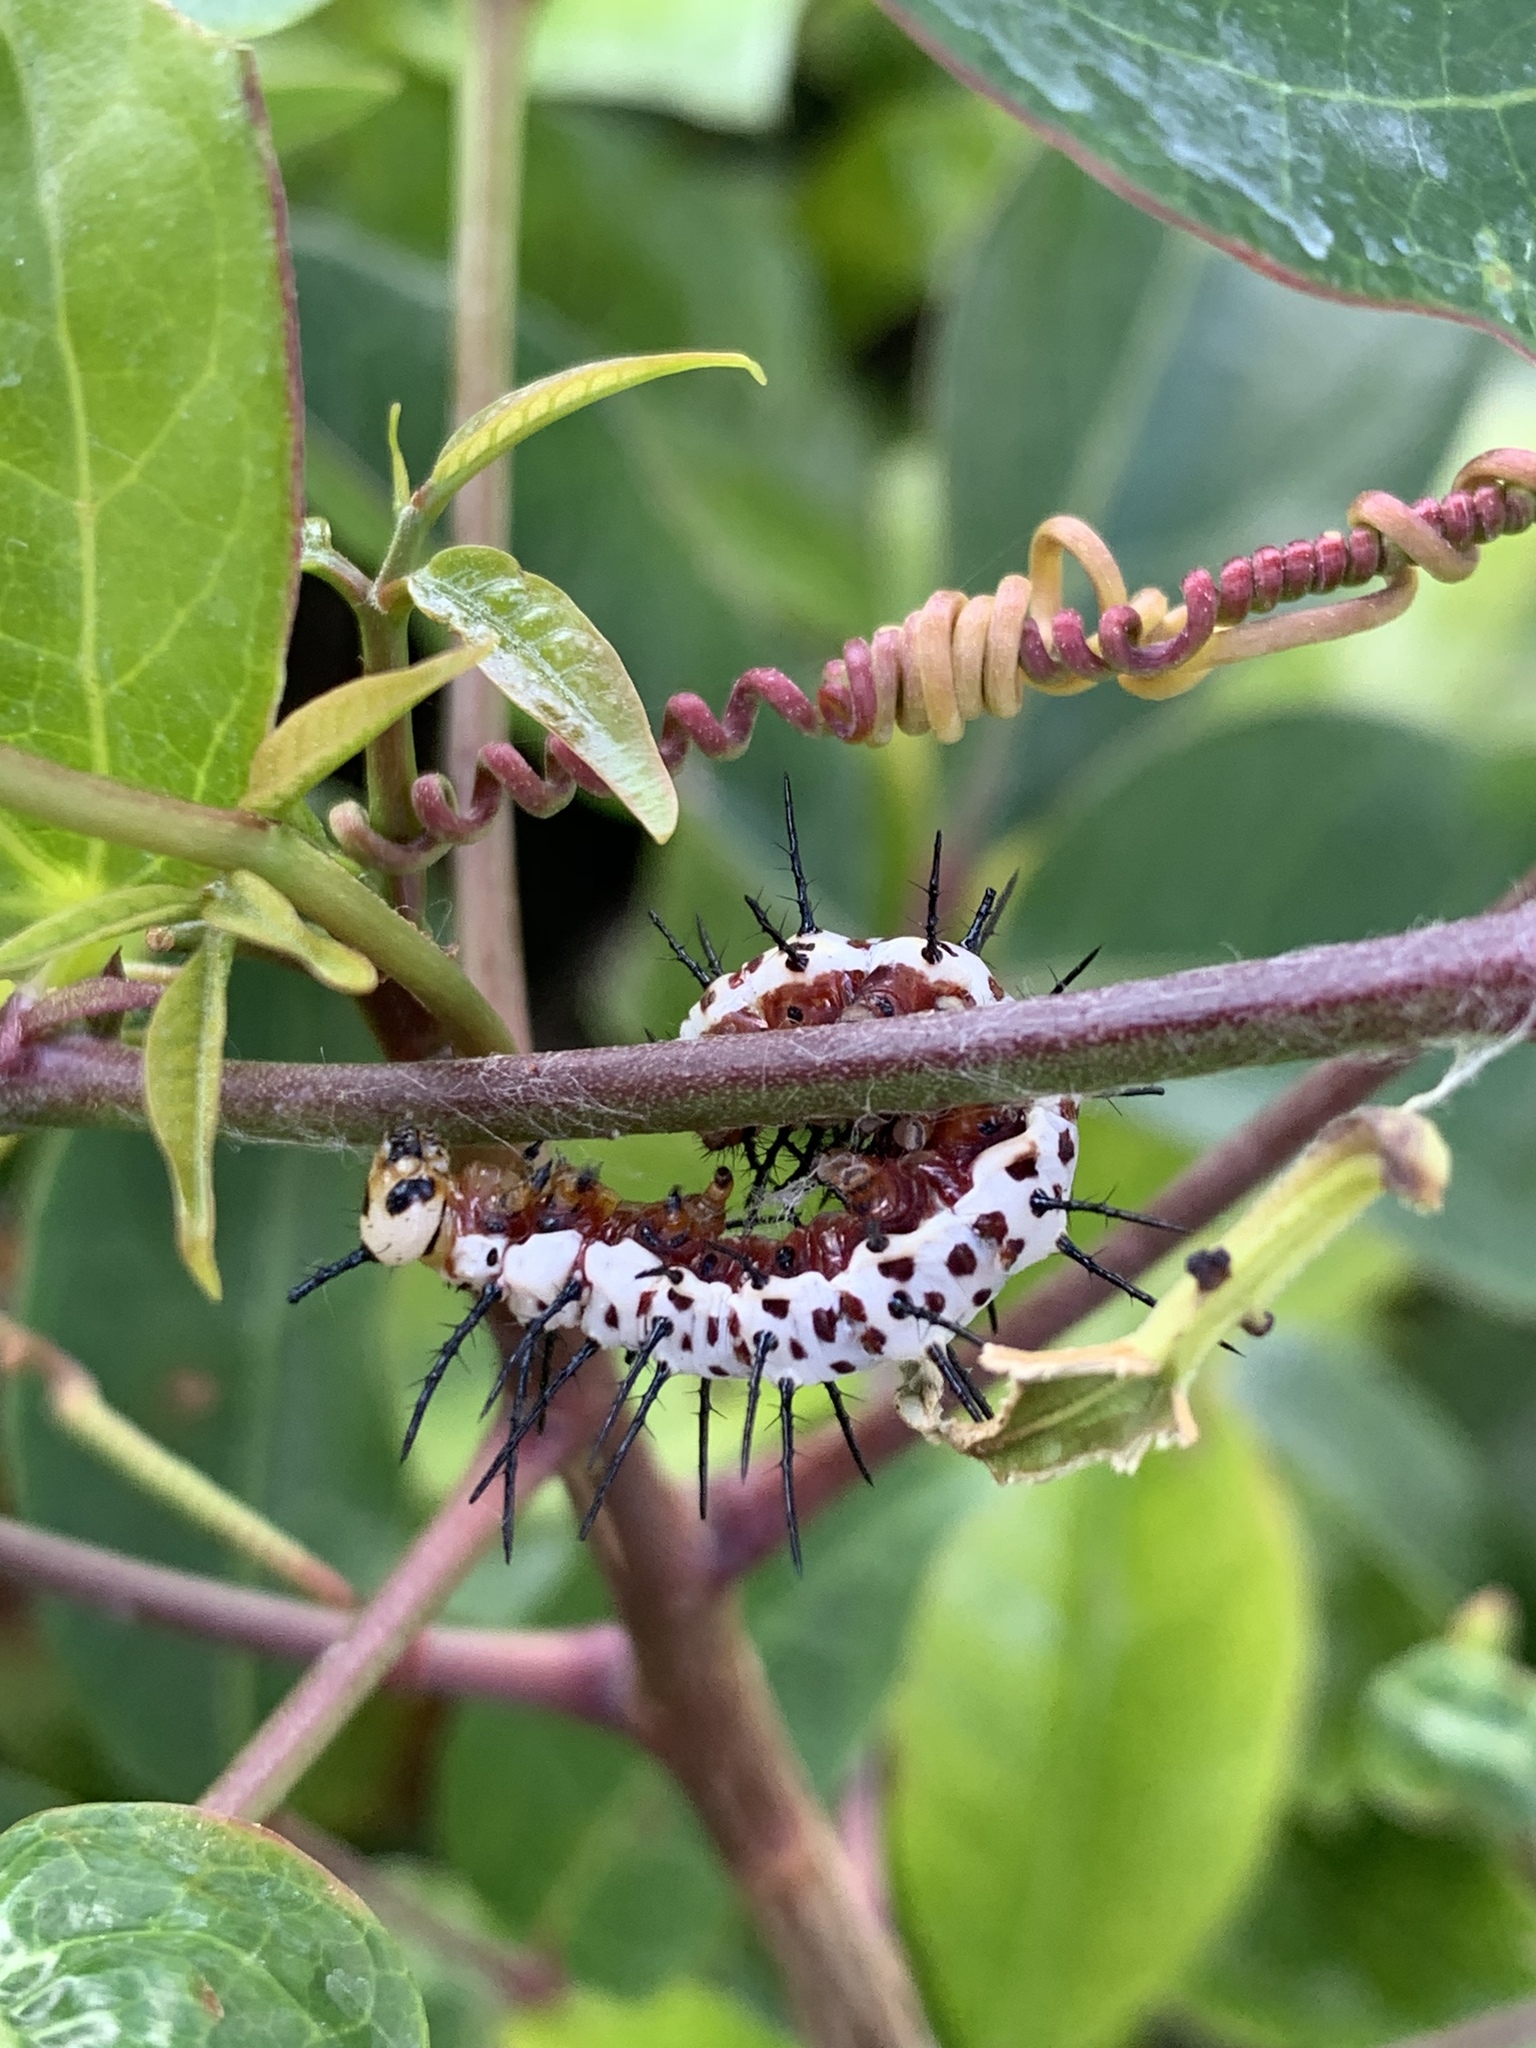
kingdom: Animalia
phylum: Arthropoda
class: Insecta
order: Lepidoptera
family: Nymphalidae
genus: Heliconius
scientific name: Heliconius charithonia
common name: Zebra long wing
